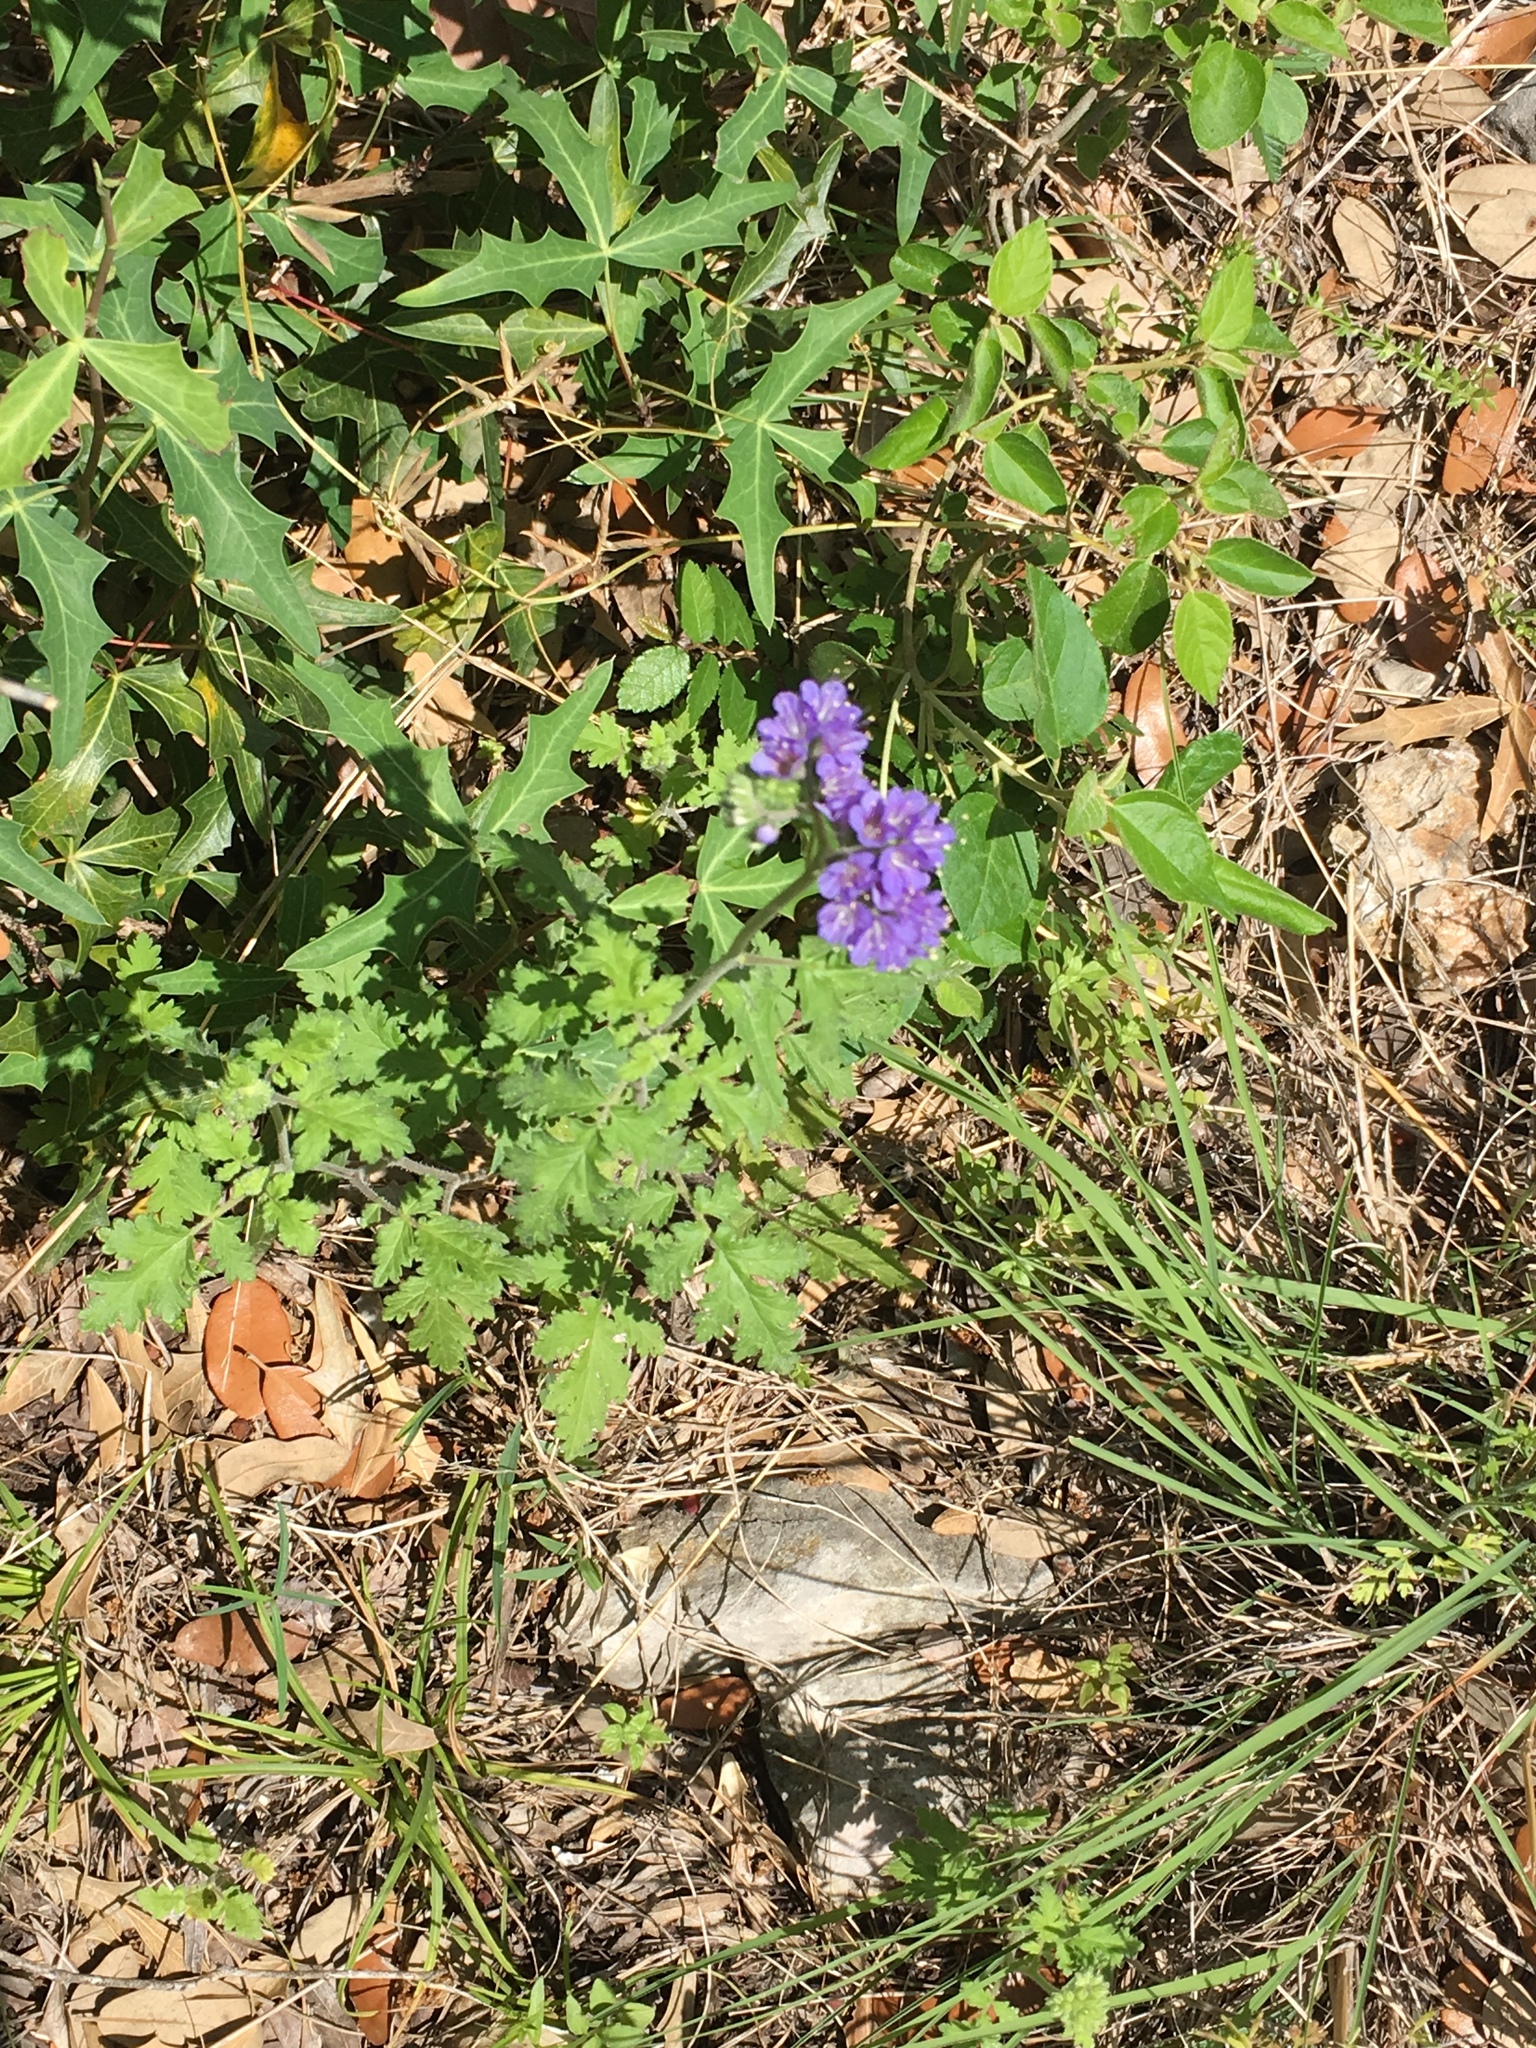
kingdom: Plantae
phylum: Tracheophyta
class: Magnoliopsida
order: Boraginales
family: Hydrophyllaceae
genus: Phacelia
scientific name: Phacelia congesta
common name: Blue curls
